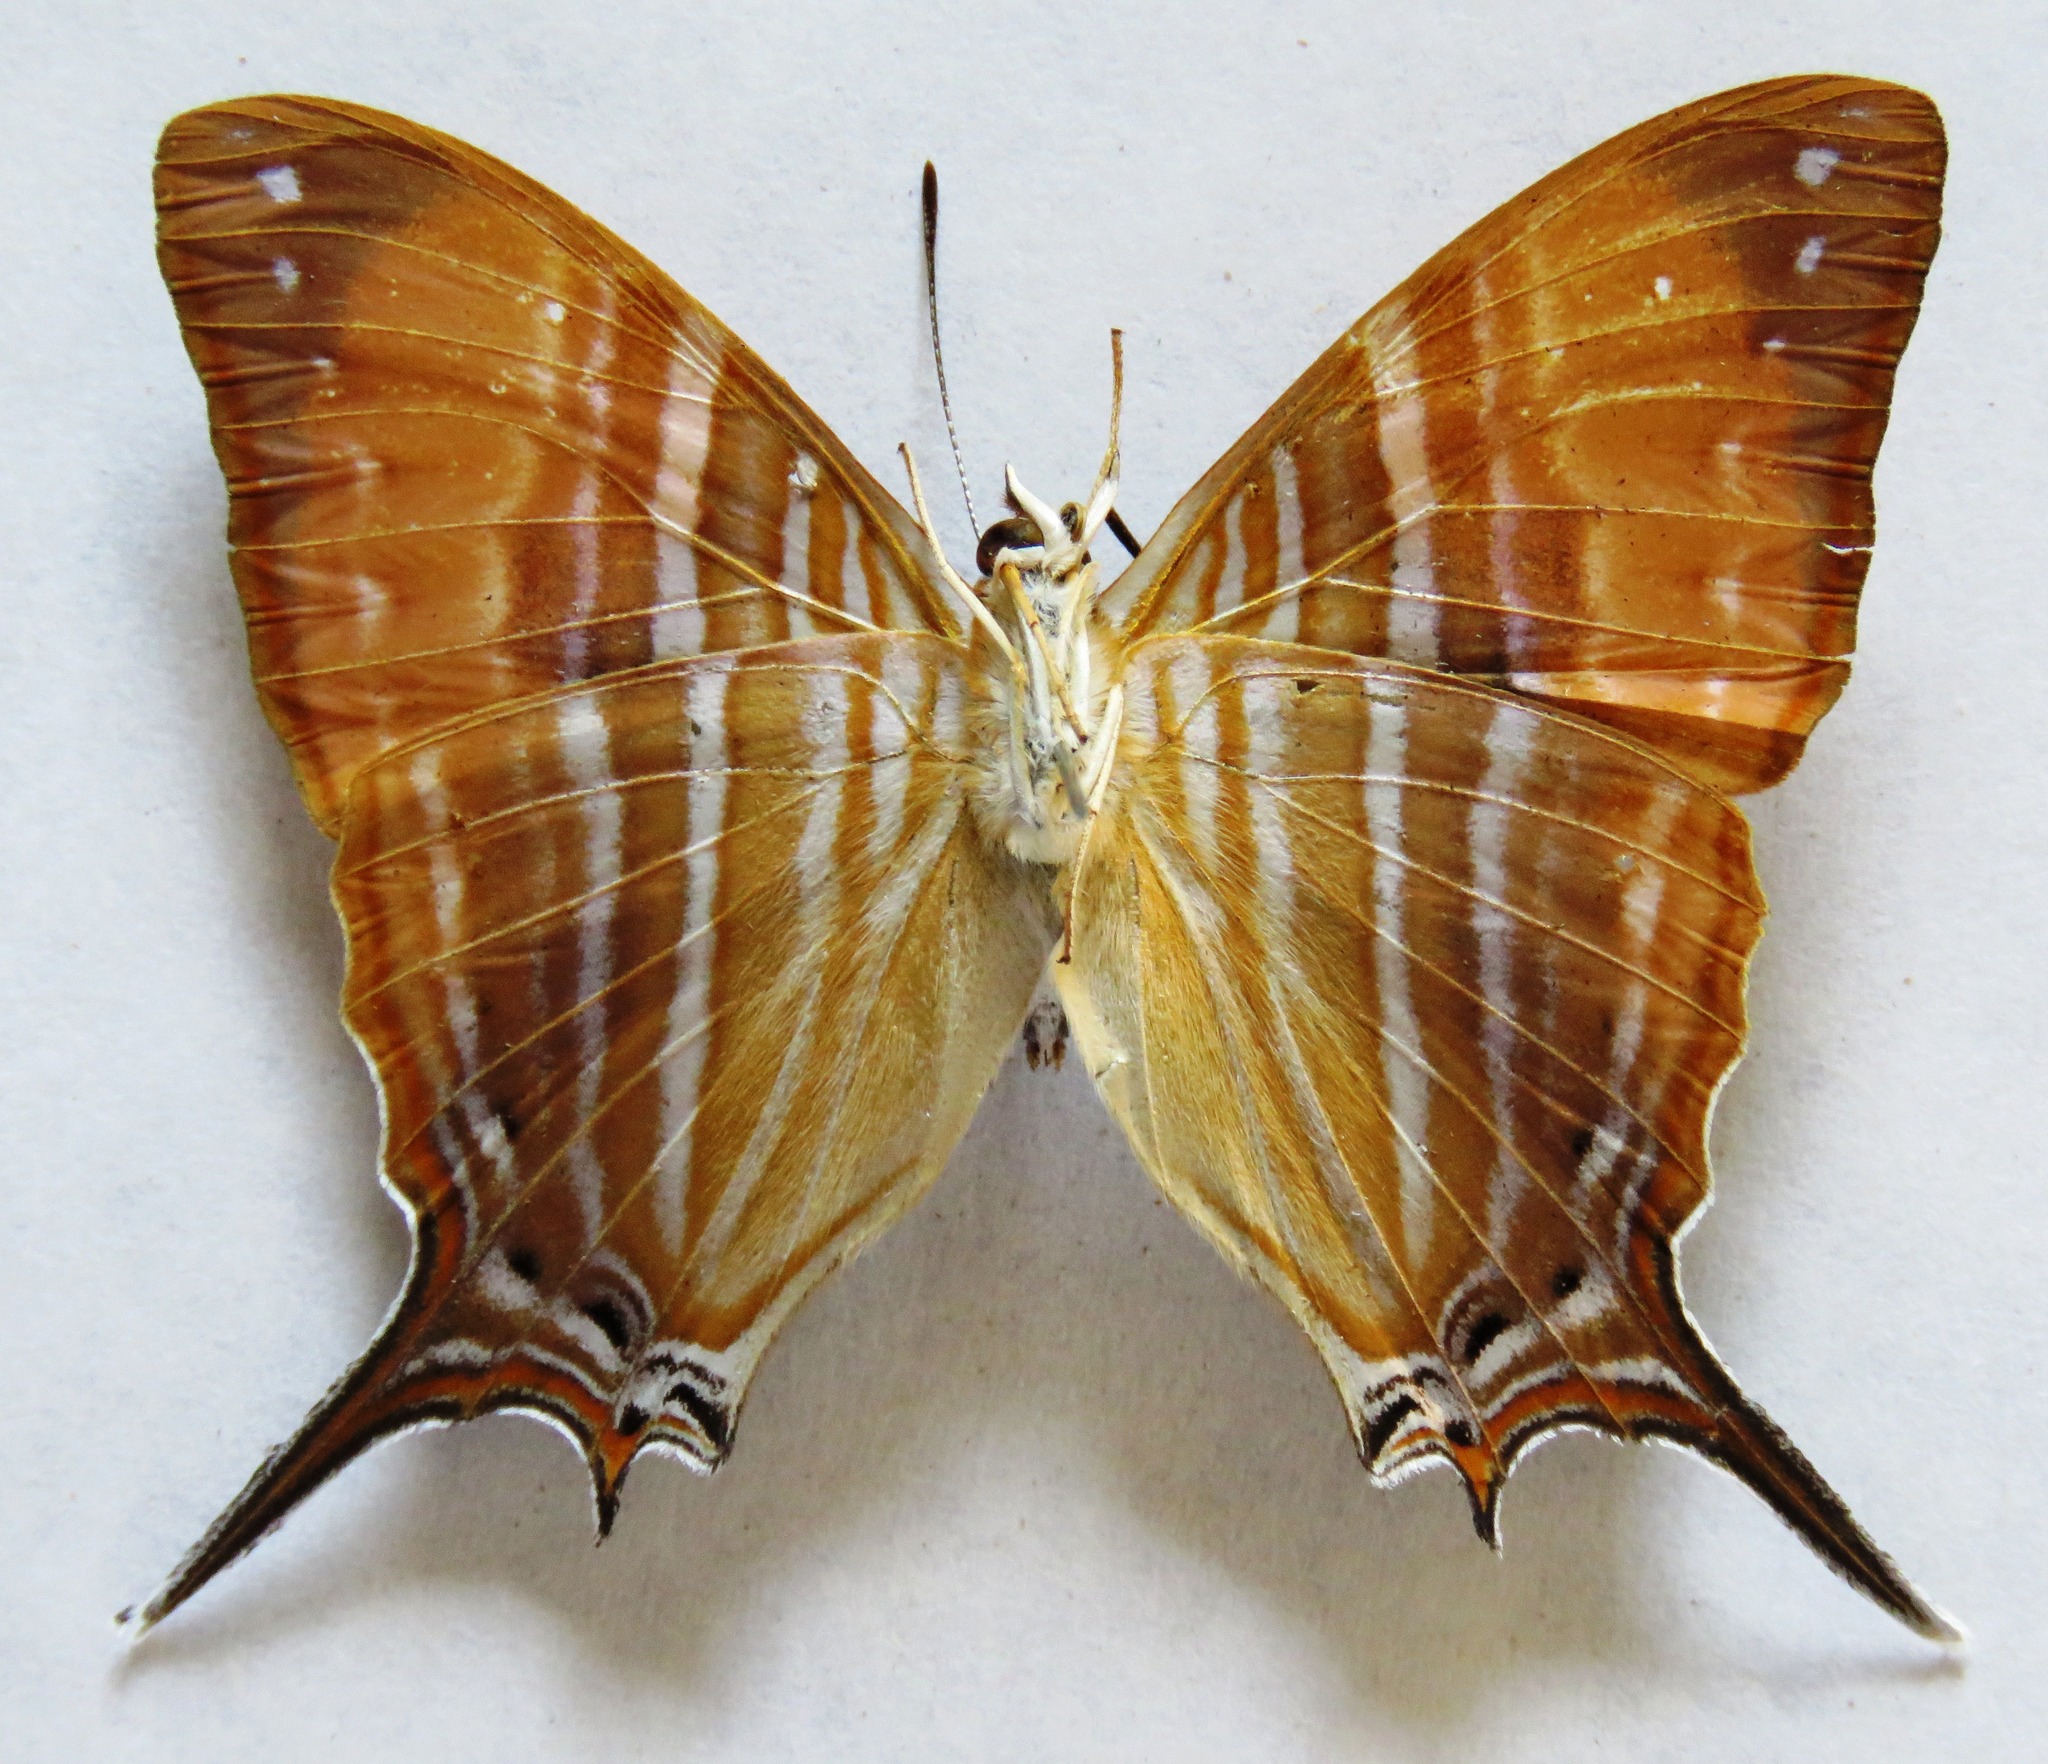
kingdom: Animalia
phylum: Arthropoda
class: Insecta
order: Lepidoptera
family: Nymphalidae
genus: Marpesia
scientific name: Marpesia marcella
